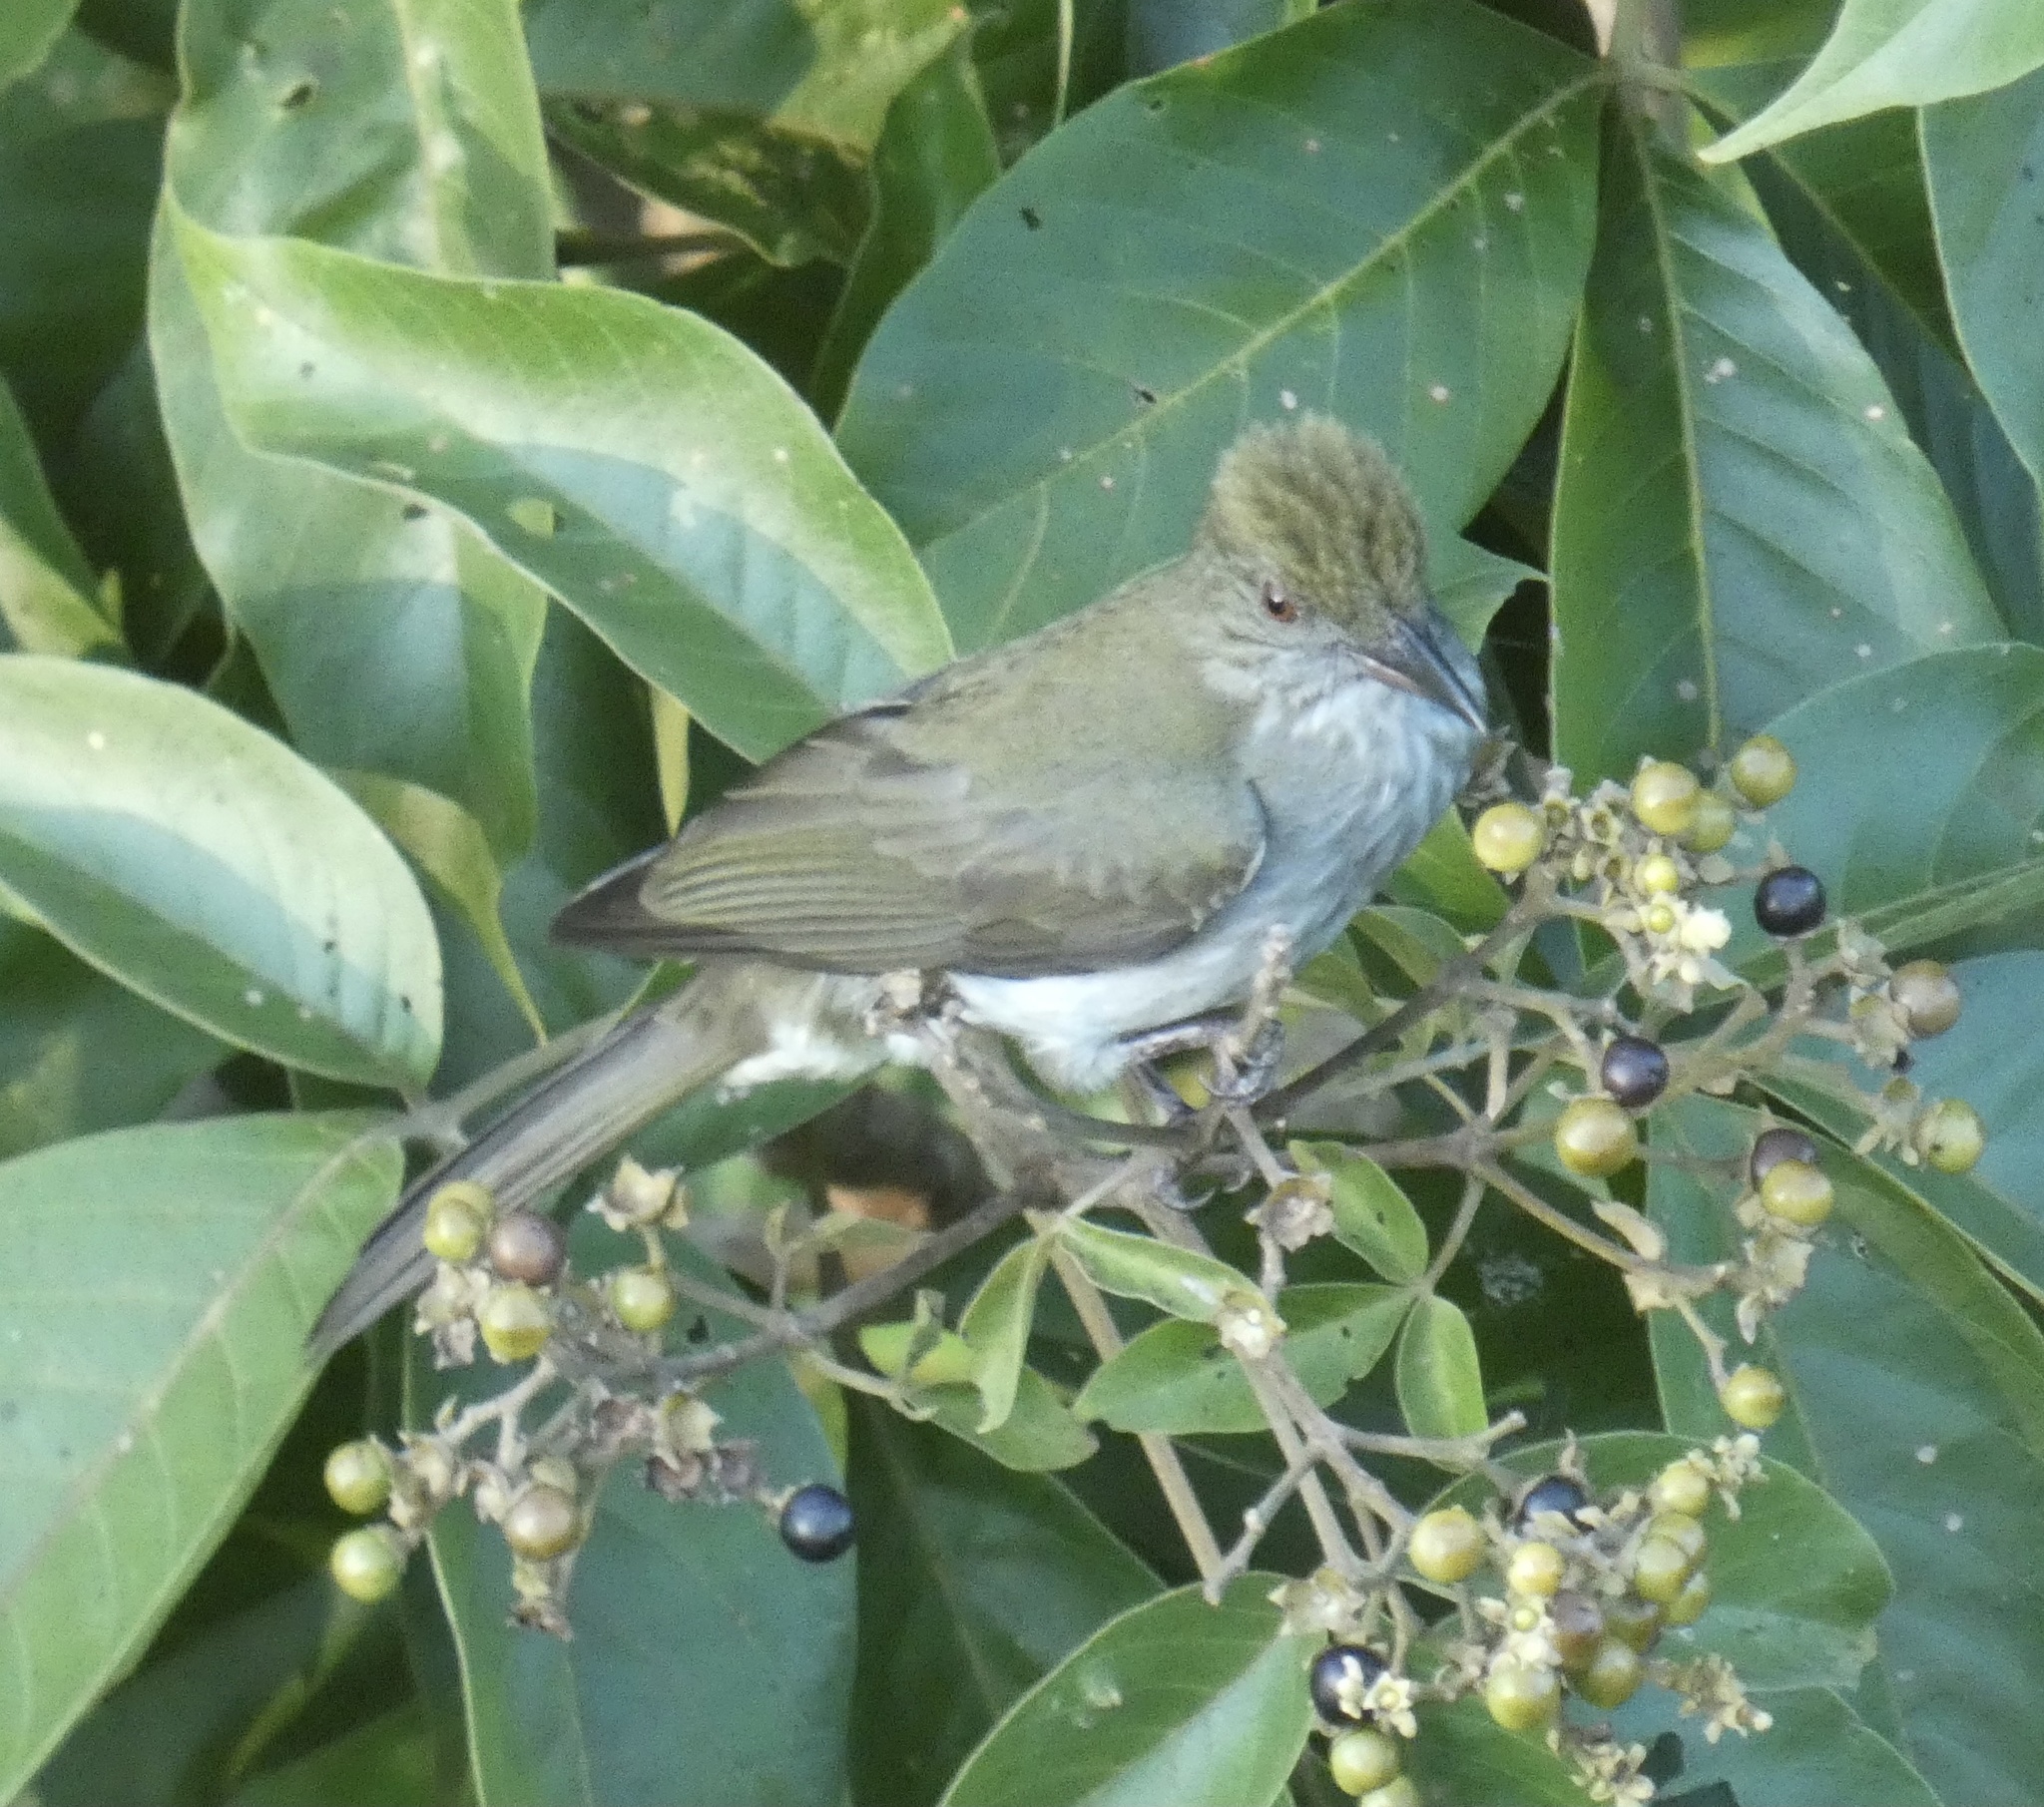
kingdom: Animalia
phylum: Chordata
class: Aves
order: Passeriformes
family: Pycnonotidae
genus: Ixos
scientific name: Ixos malaccensis
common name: Streaked bulbul
